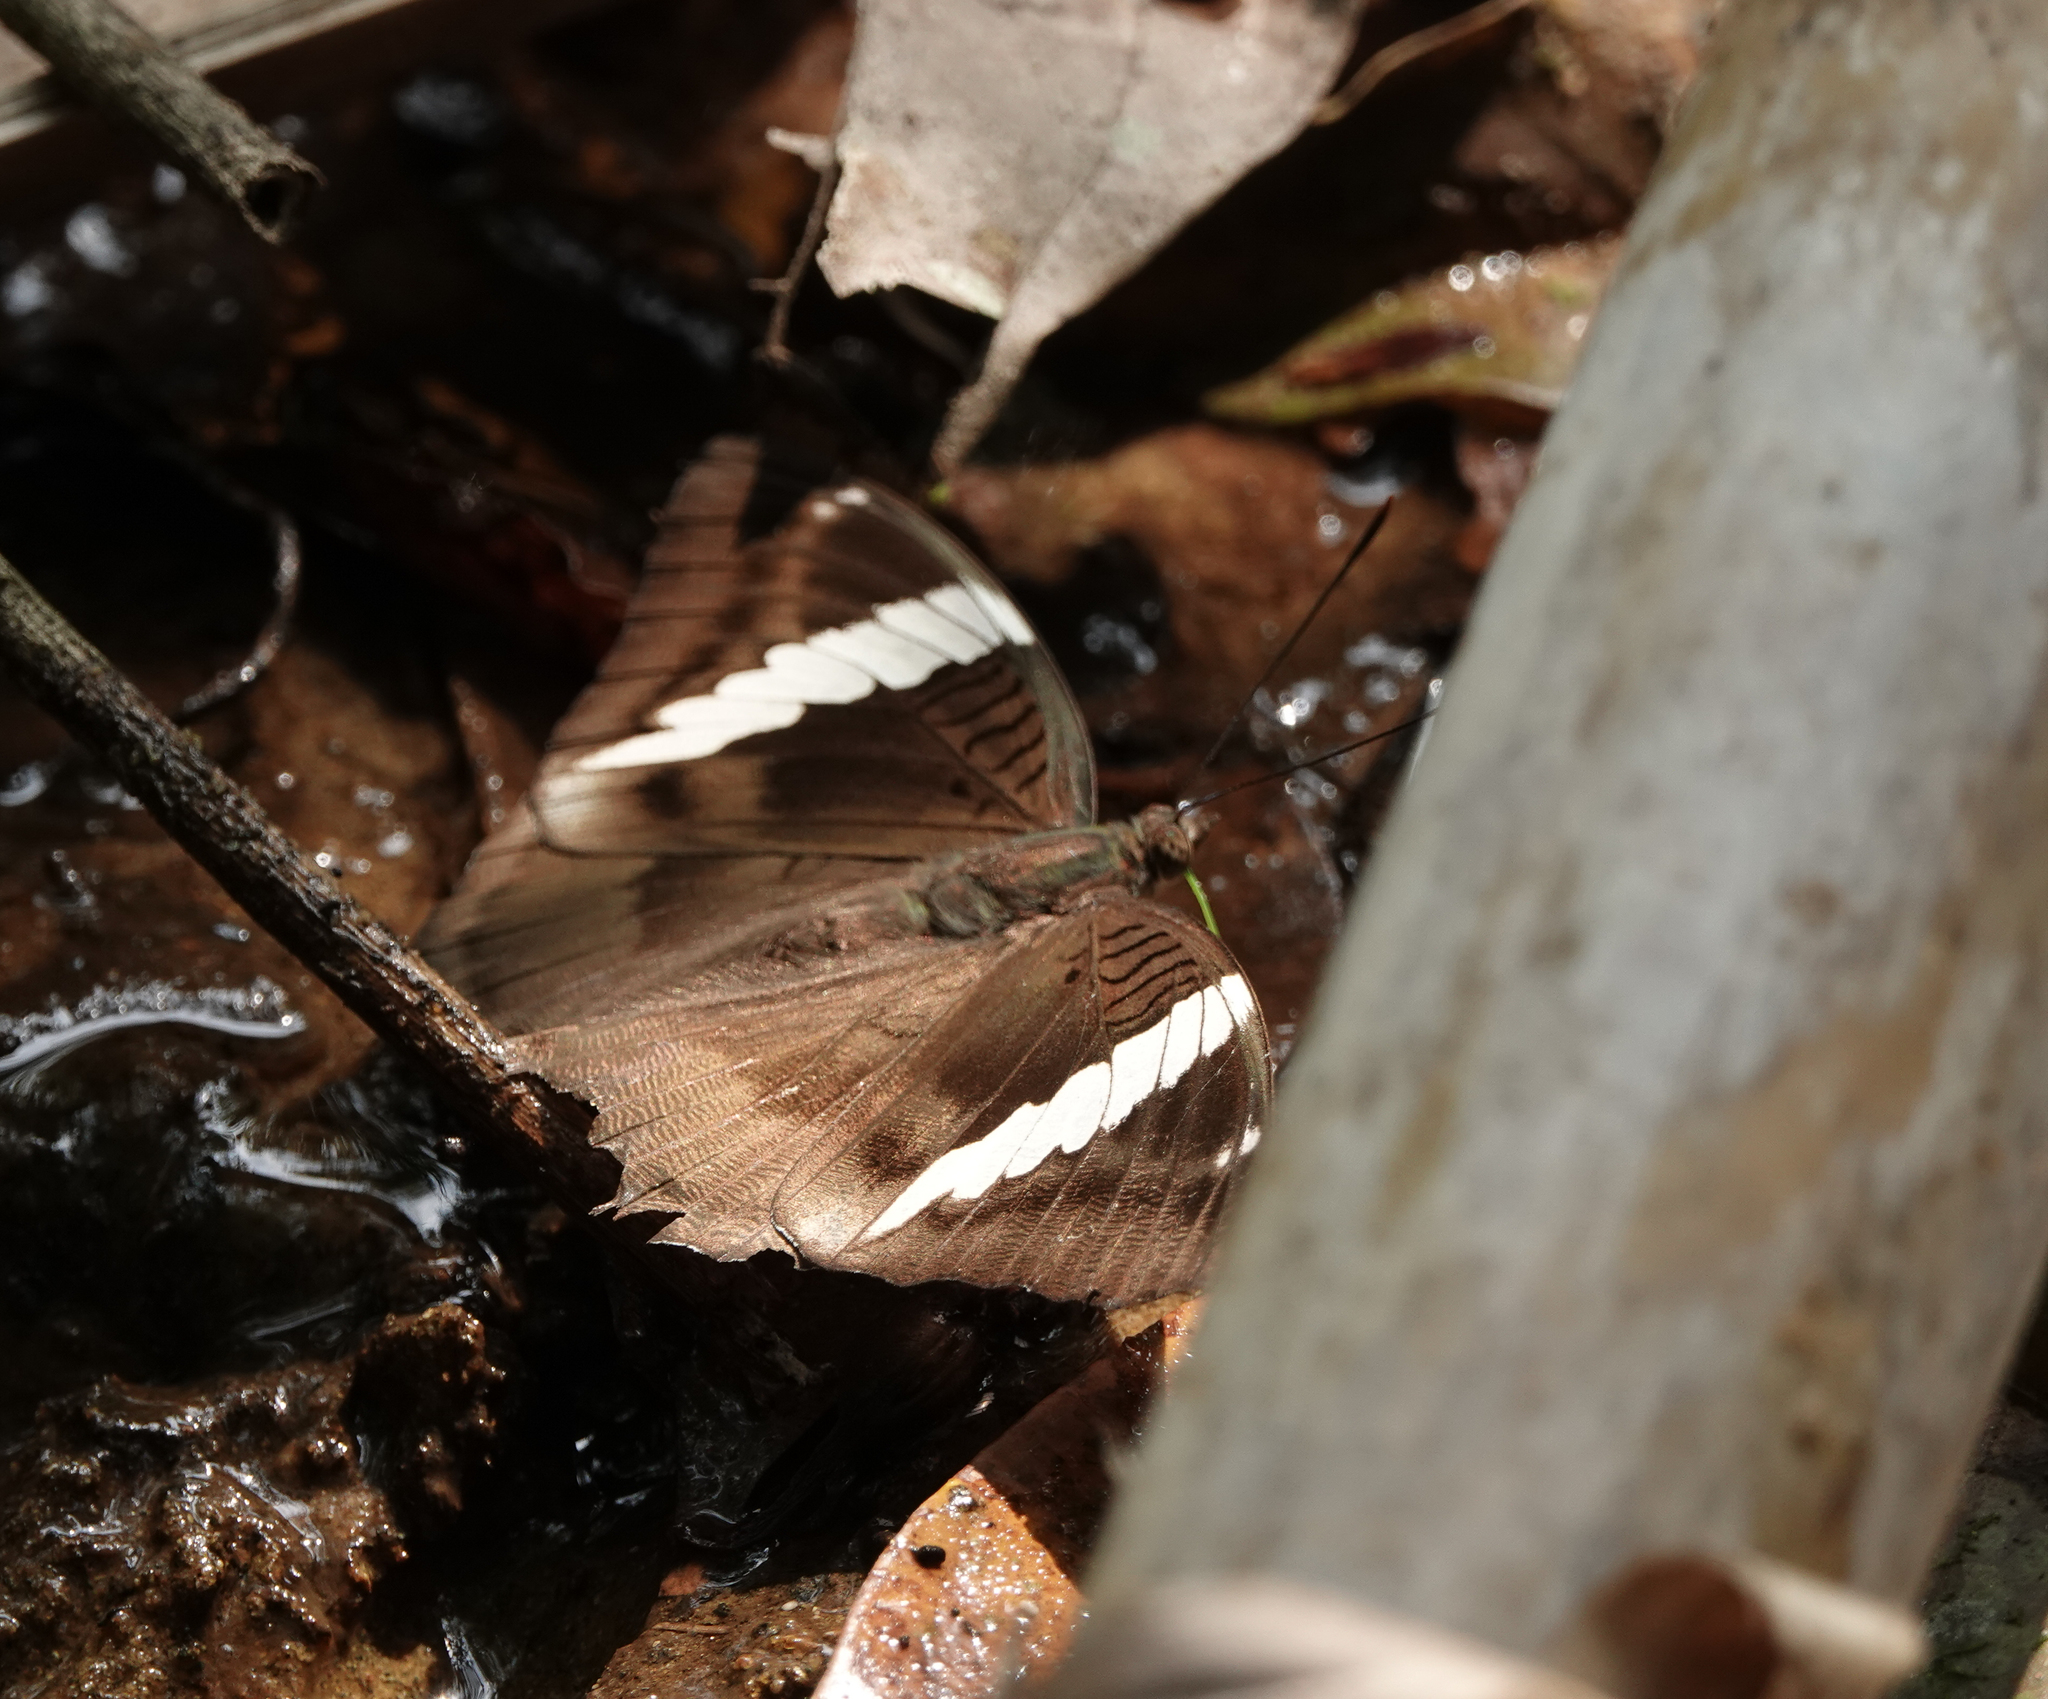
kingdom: Animalia
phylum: Arthropoda
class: Insecta
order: Lepidoptera
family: Nymphalidae
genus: Euthalia
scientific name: Euthalia phemius
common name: White-edged blue baron
